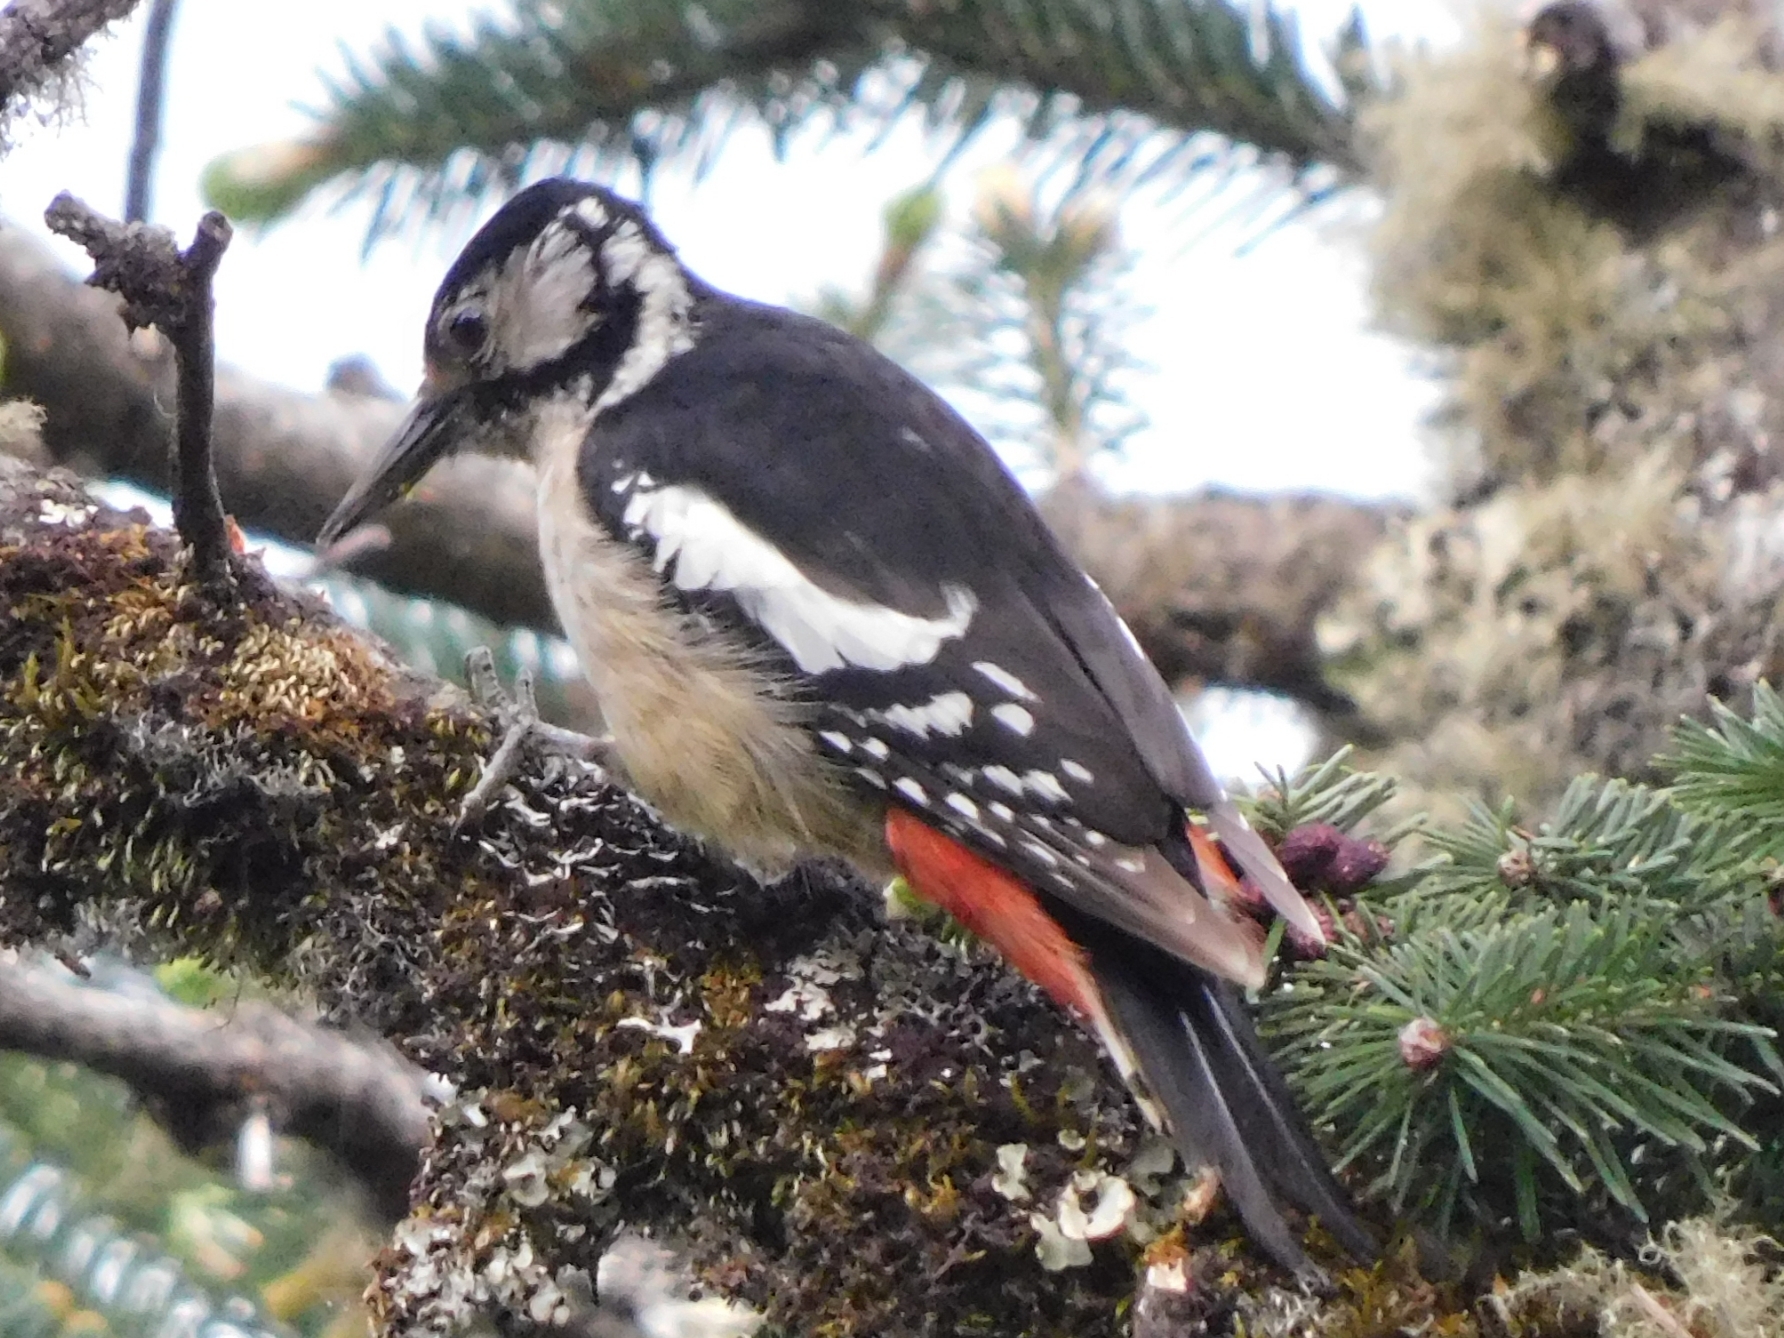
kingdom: Animalia
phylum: Chordata
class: Aves
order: Piciformes
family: Picidae
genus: Dendrocopos
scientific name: Dendrocopos himalayensis
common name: Himalayan woodpecker
